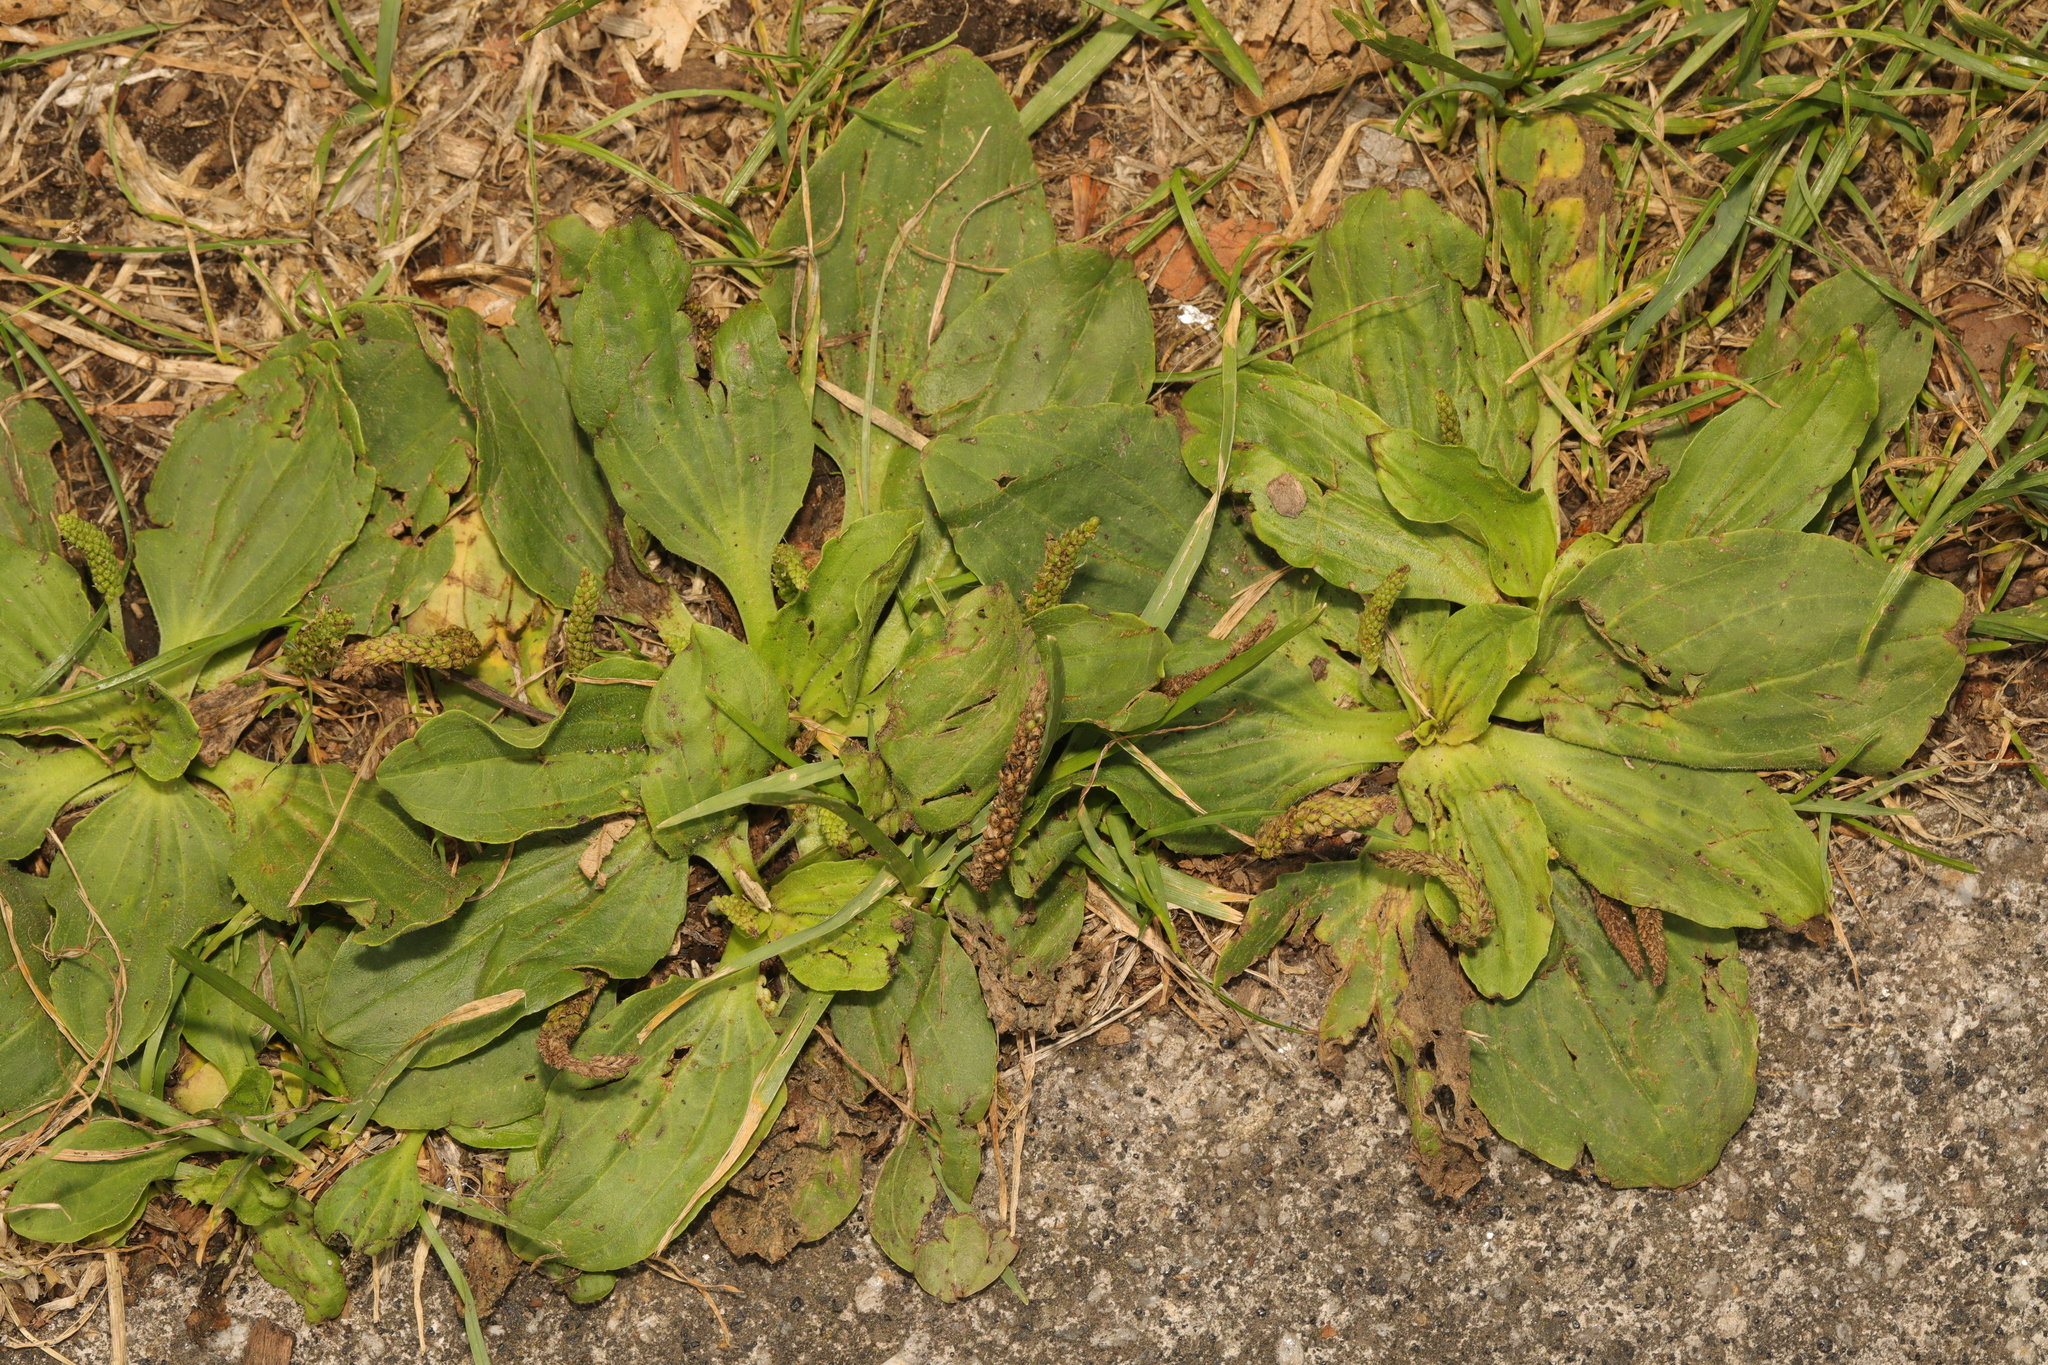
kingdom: Plantae
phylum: Tracheophyta
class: Magnoliopsida
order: Lamiales
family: Plantaginaceae
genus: Plantago
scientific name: Plantago major
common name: Common plantain
